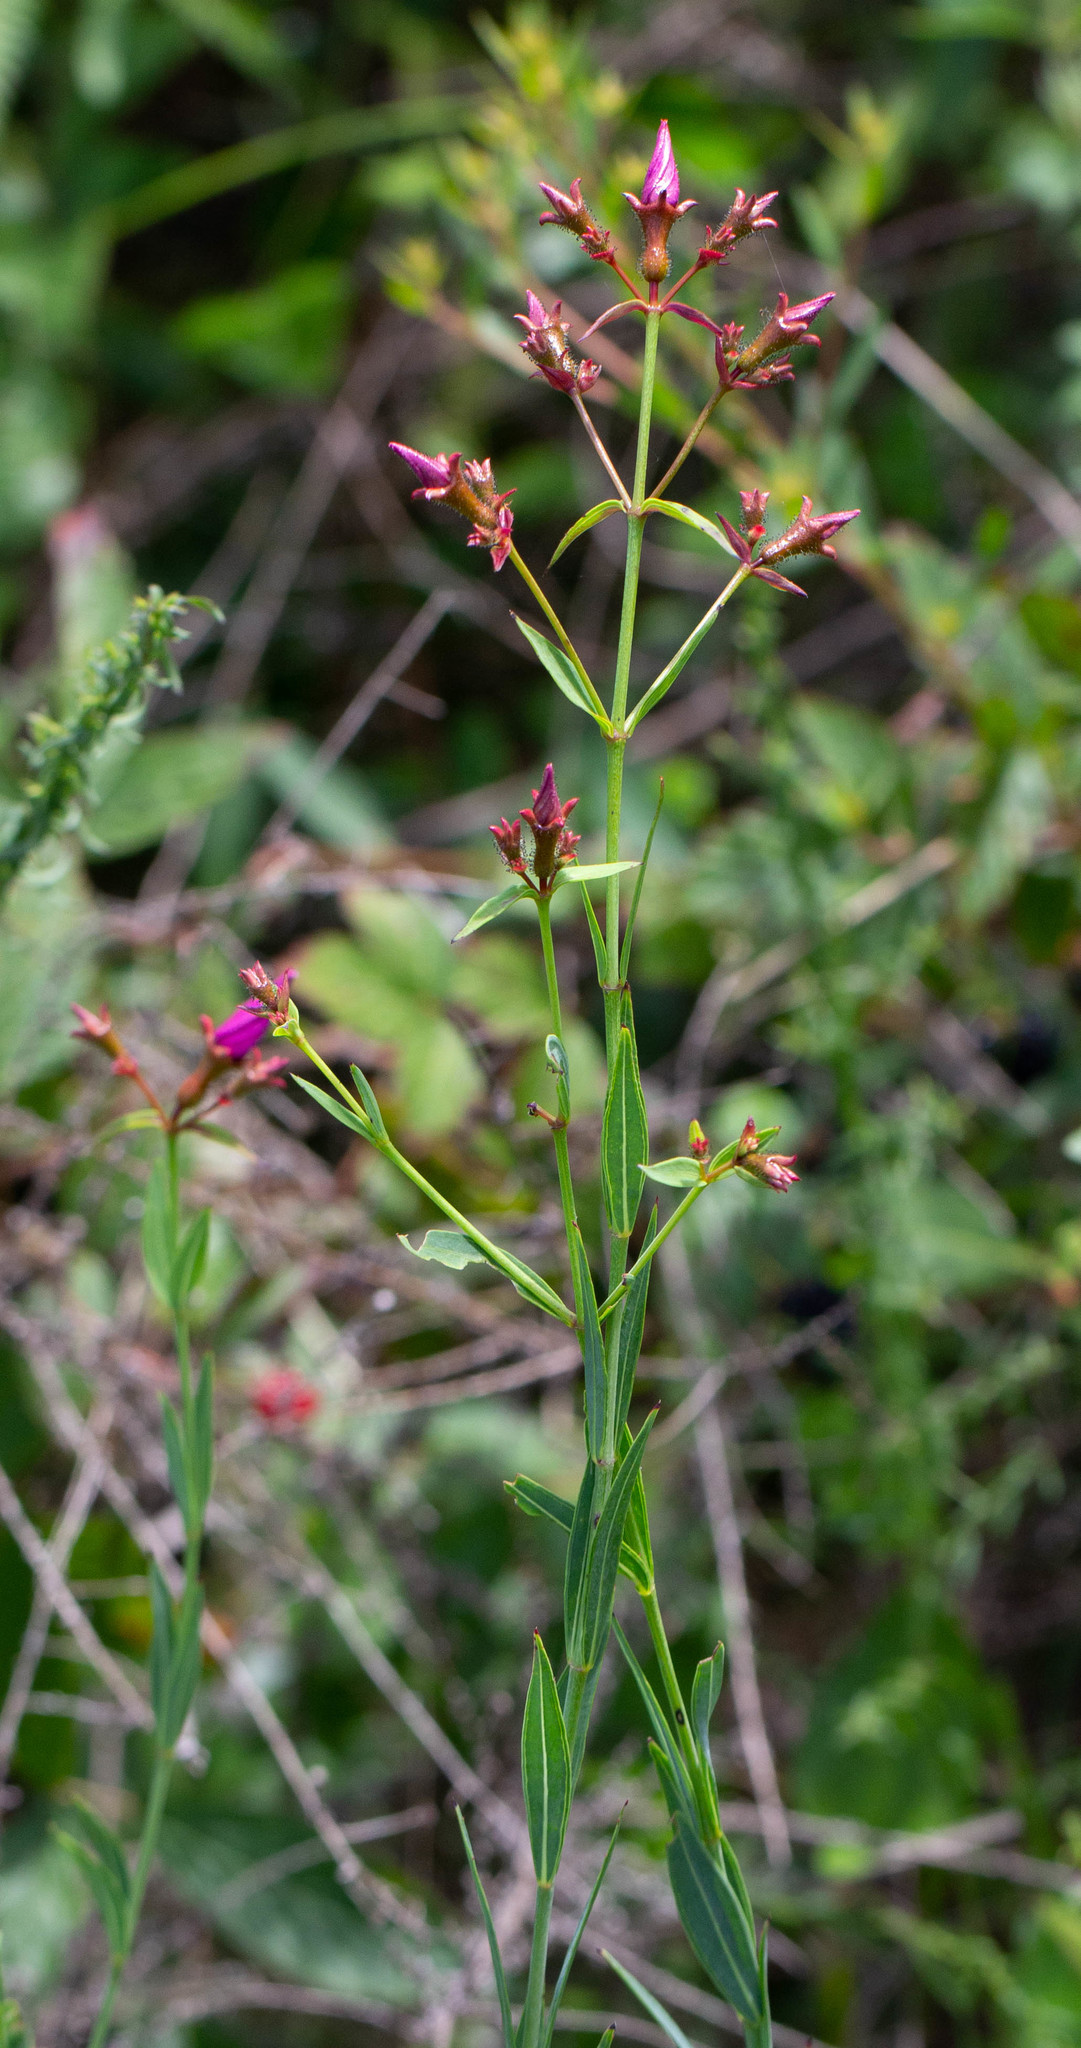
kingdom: Plantae
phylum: Tracheophyta
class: Magnoliopsida
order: Myrtales
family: Melastomataceae
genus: Rhexia
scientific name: Rhexia alifanus
